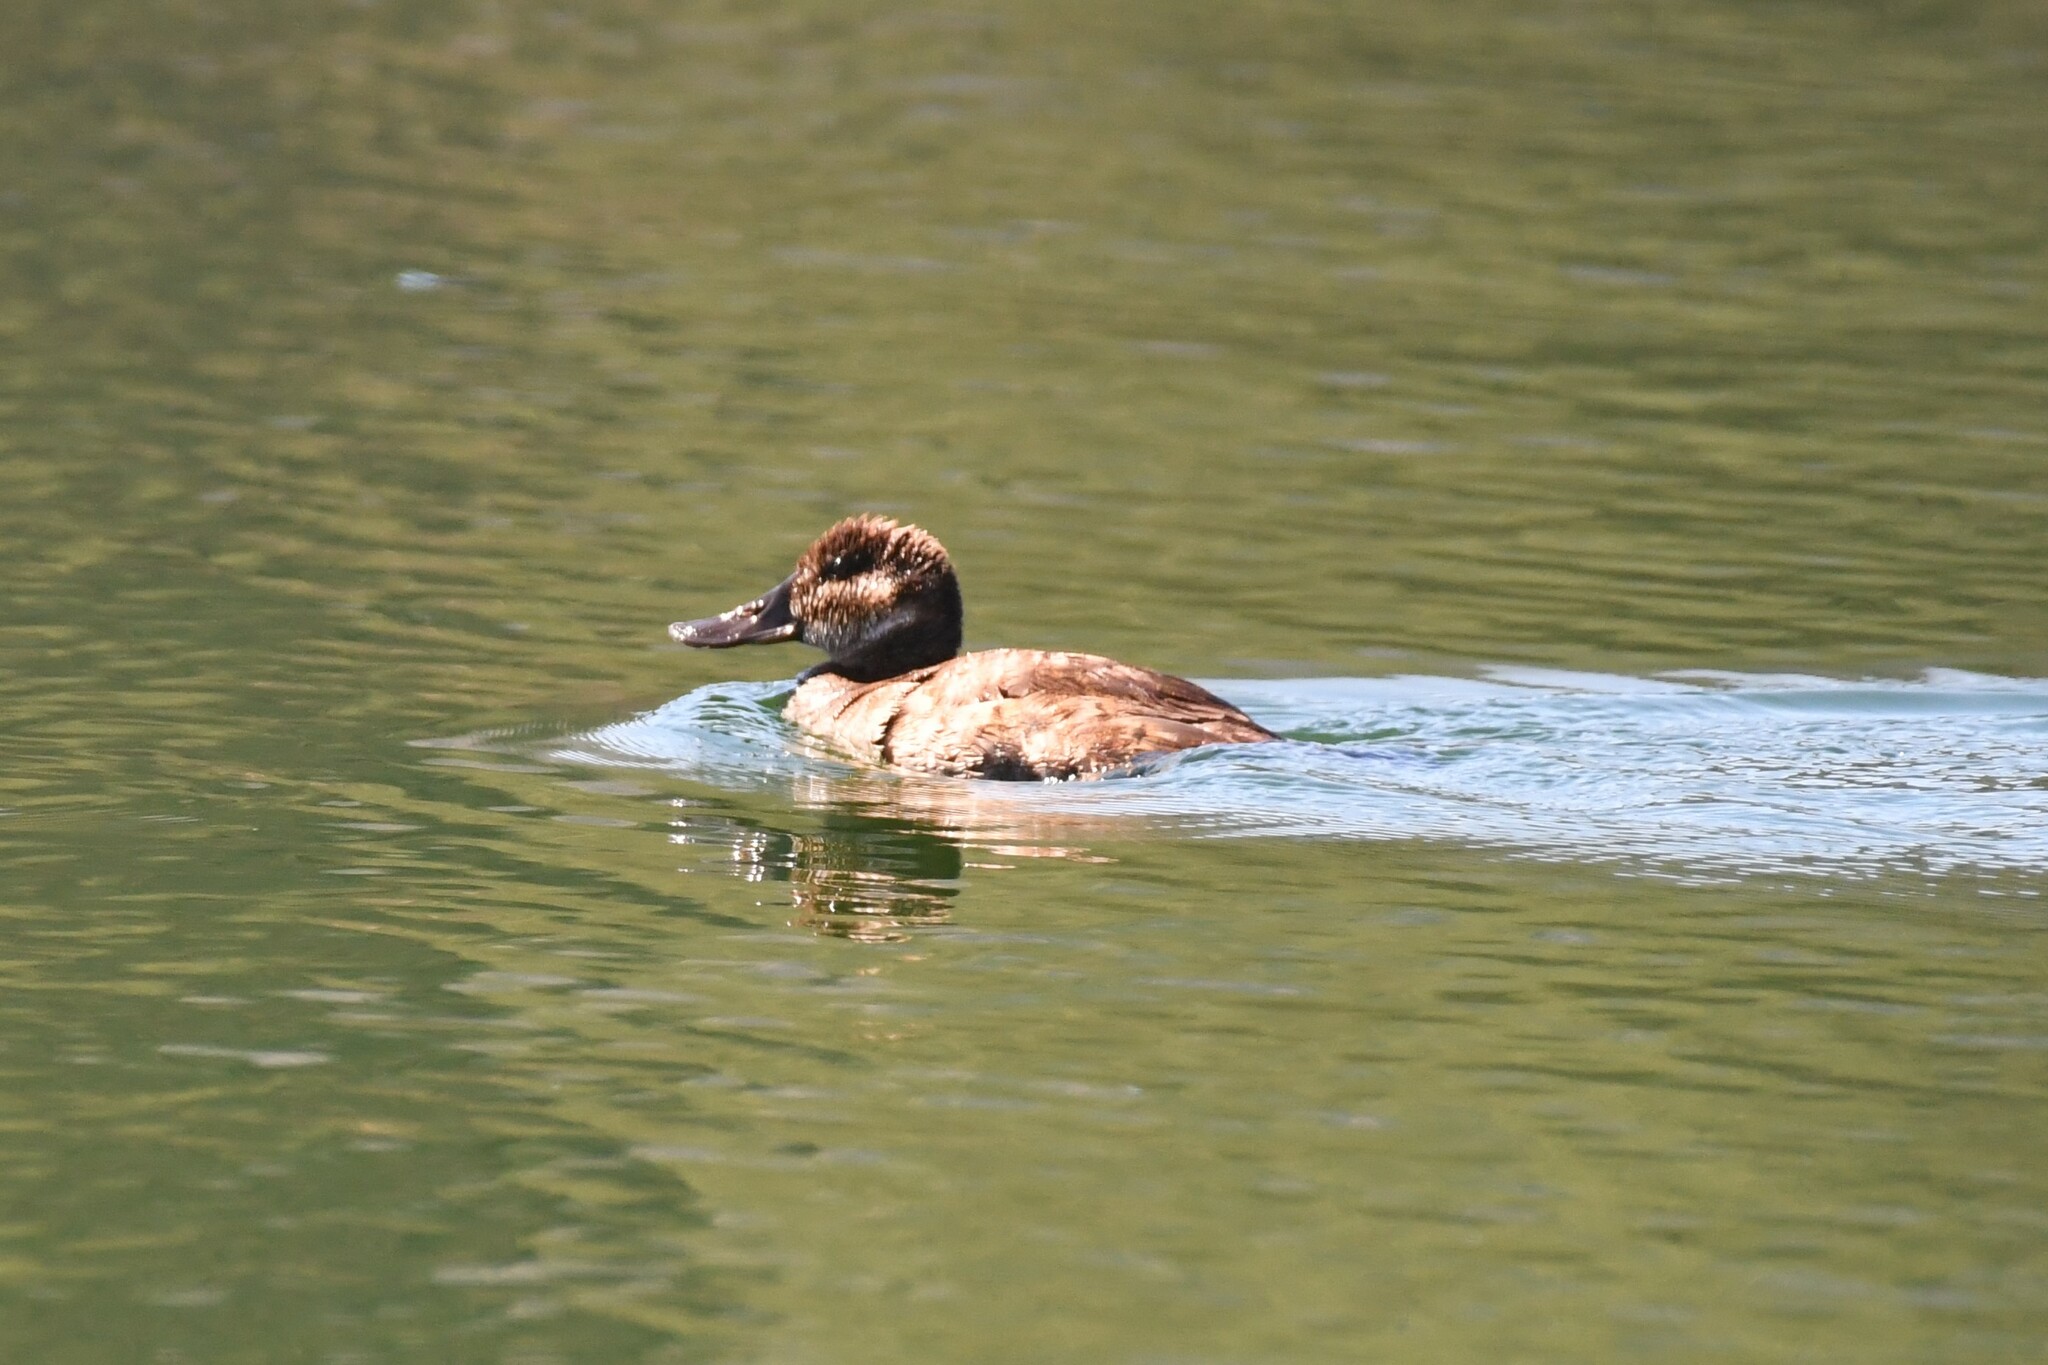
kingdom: Animalia
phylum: Chordata
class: Aves
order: Anseriformes
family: Anatidae
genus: Oxyura
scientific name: Oxyura jamaicensis
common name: Ruddy duck
